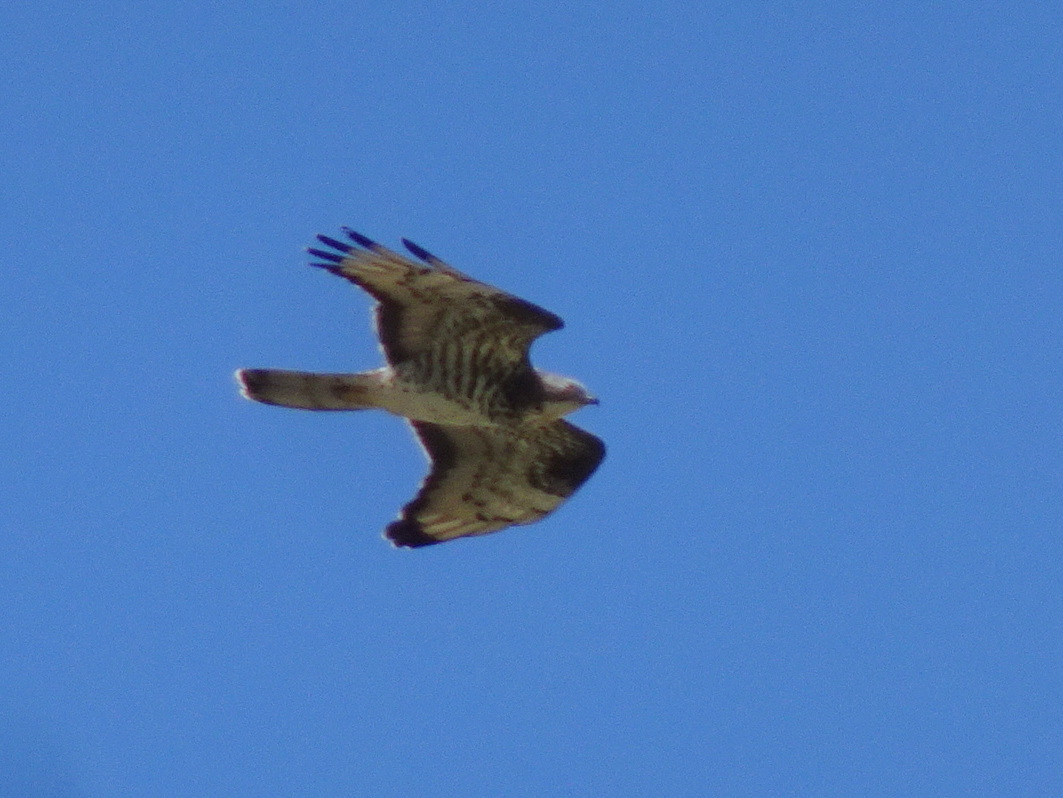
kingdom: Animalia
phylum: Chordata
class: Aves
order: Accipitriformes
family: Accipitridae
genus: Pernis
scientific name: Pernis apivorus
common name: European honey buzzard
